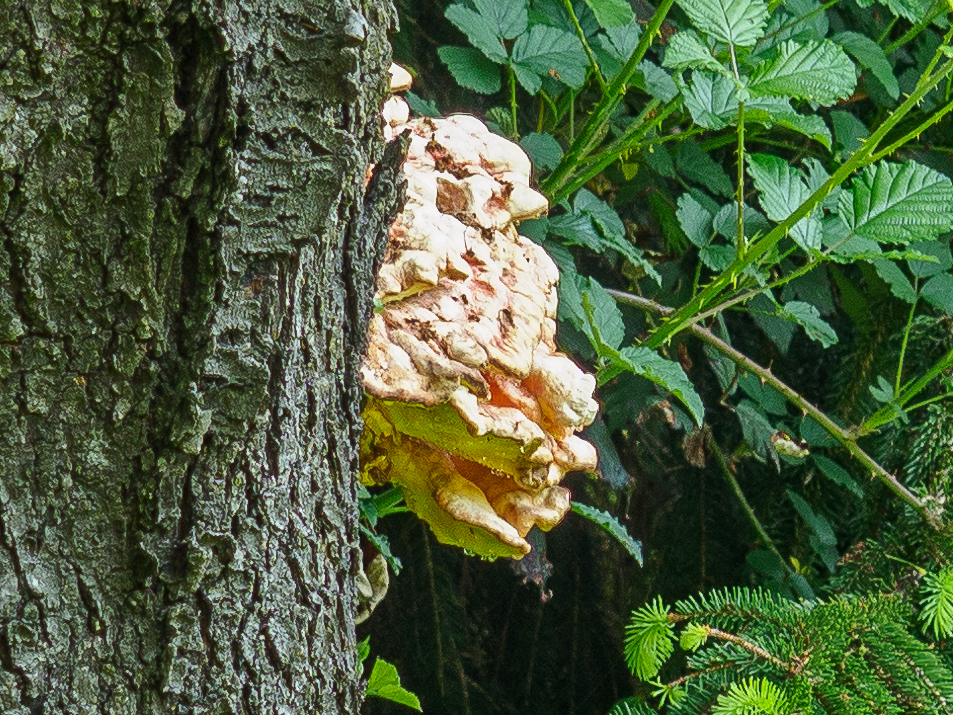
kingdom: Fungi
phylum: Basidiomycota
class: Agaricomycetes
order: Polyporales
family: Laetiporaceae
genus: Laetiporus
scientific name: Laetiporus sulphureus
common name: Chicken of the woods
